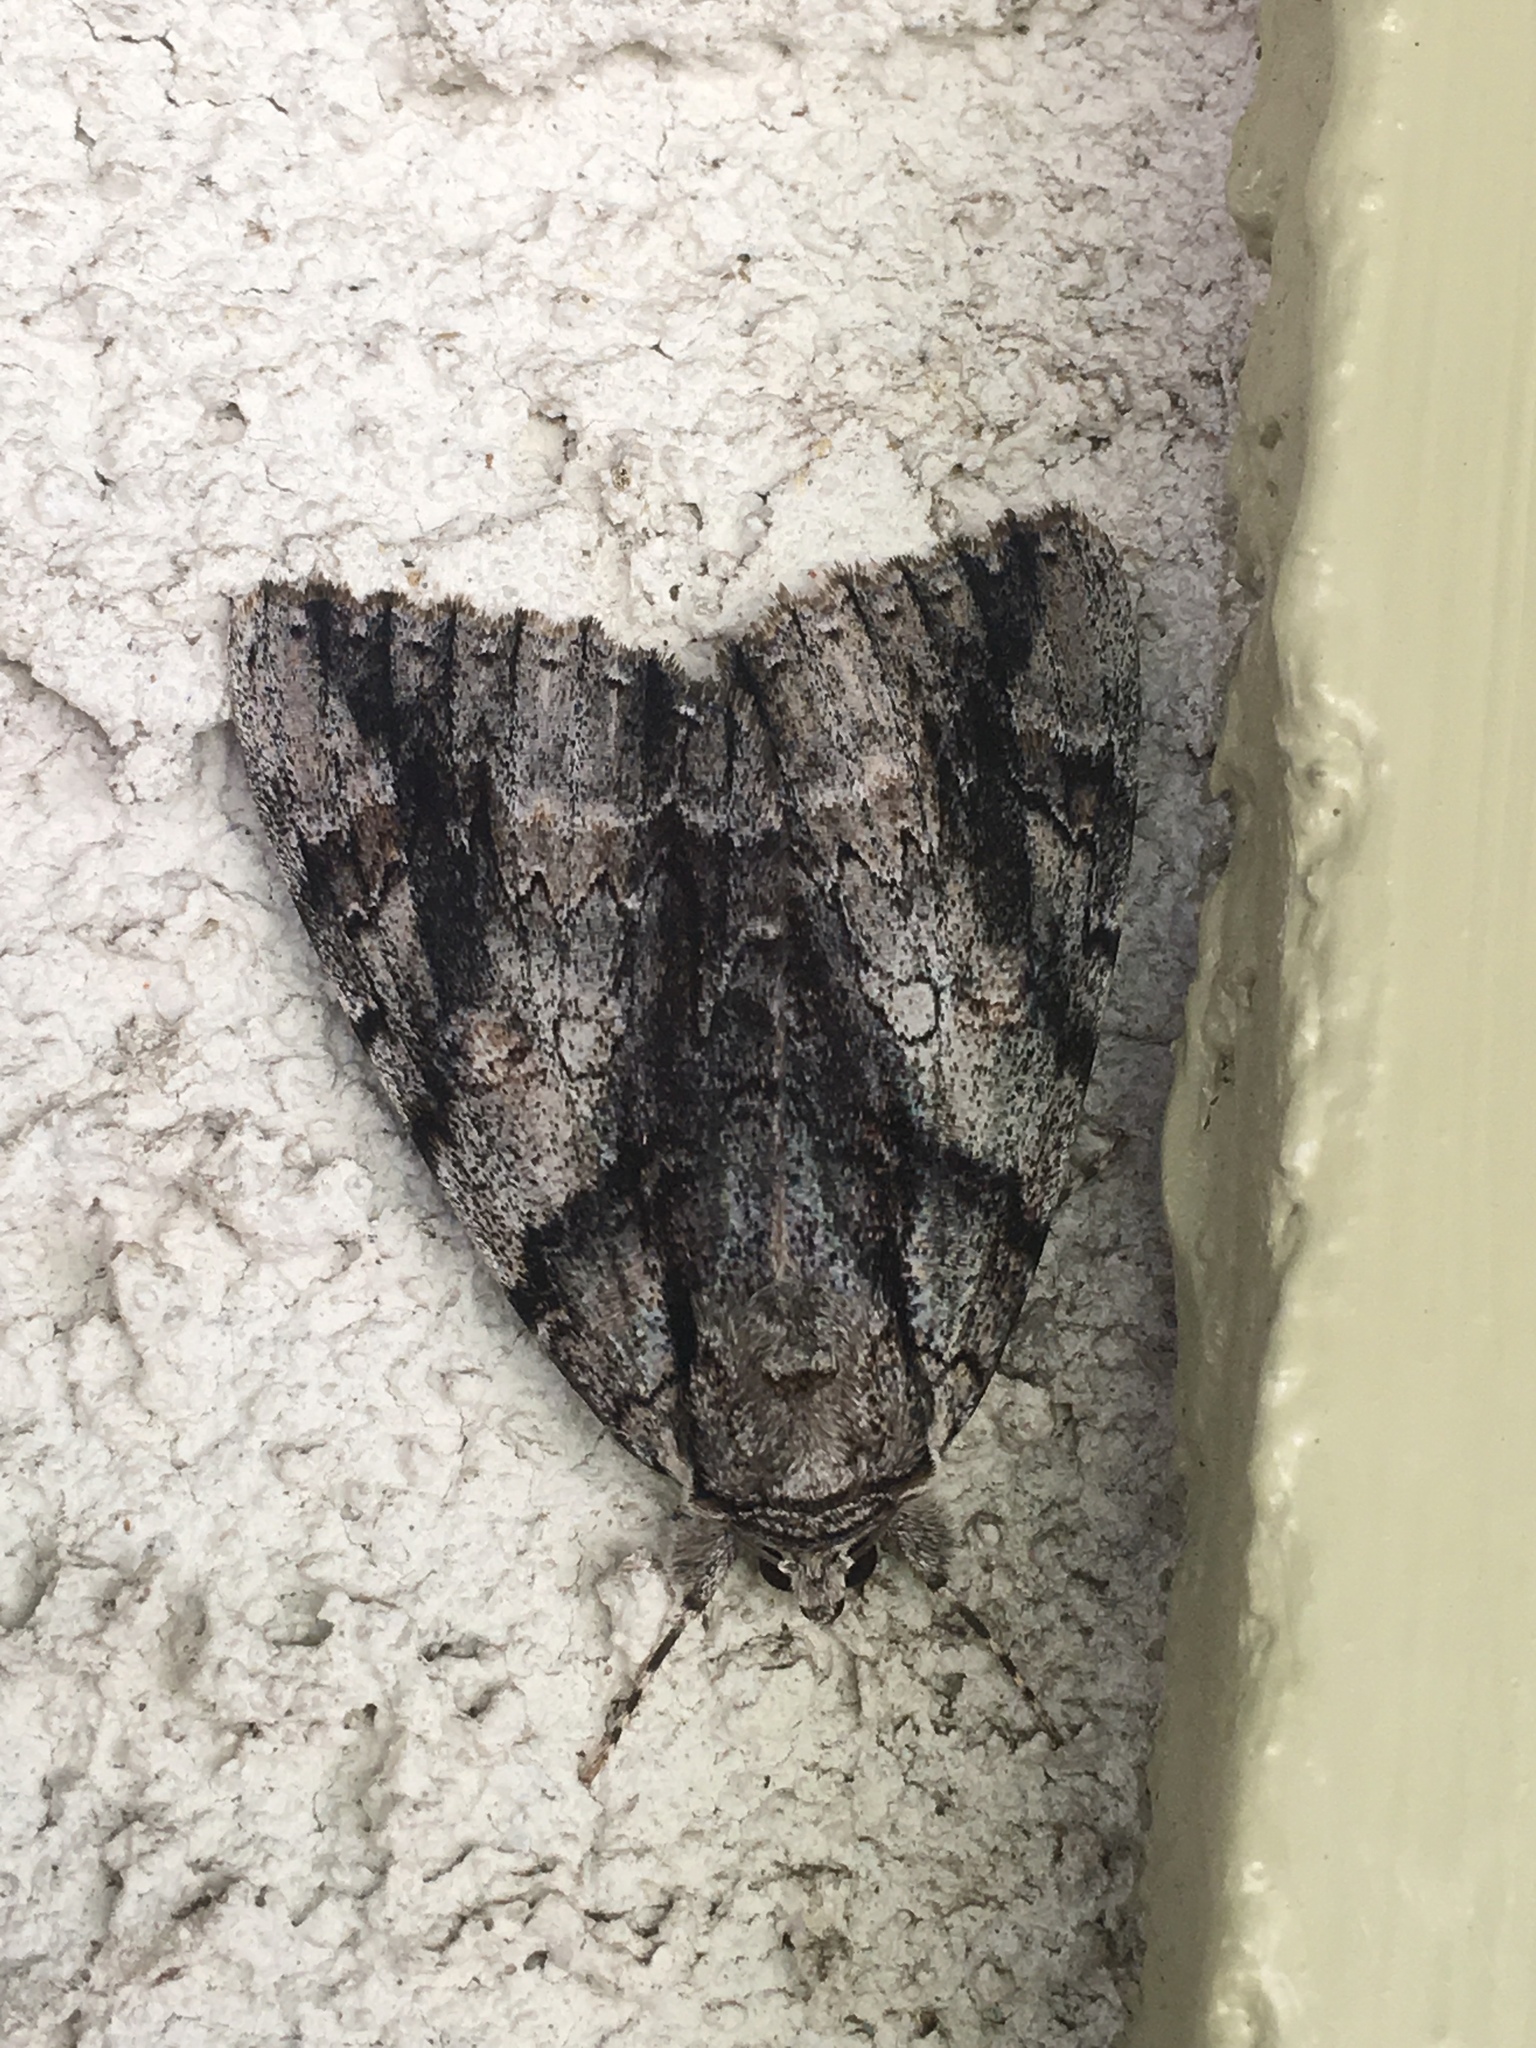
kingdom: Animalia
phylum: Arthropoda
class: Insecta
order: Lepidoptera
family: Erebidae
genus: Catocala
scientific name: Catocala vidua
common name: The widow
